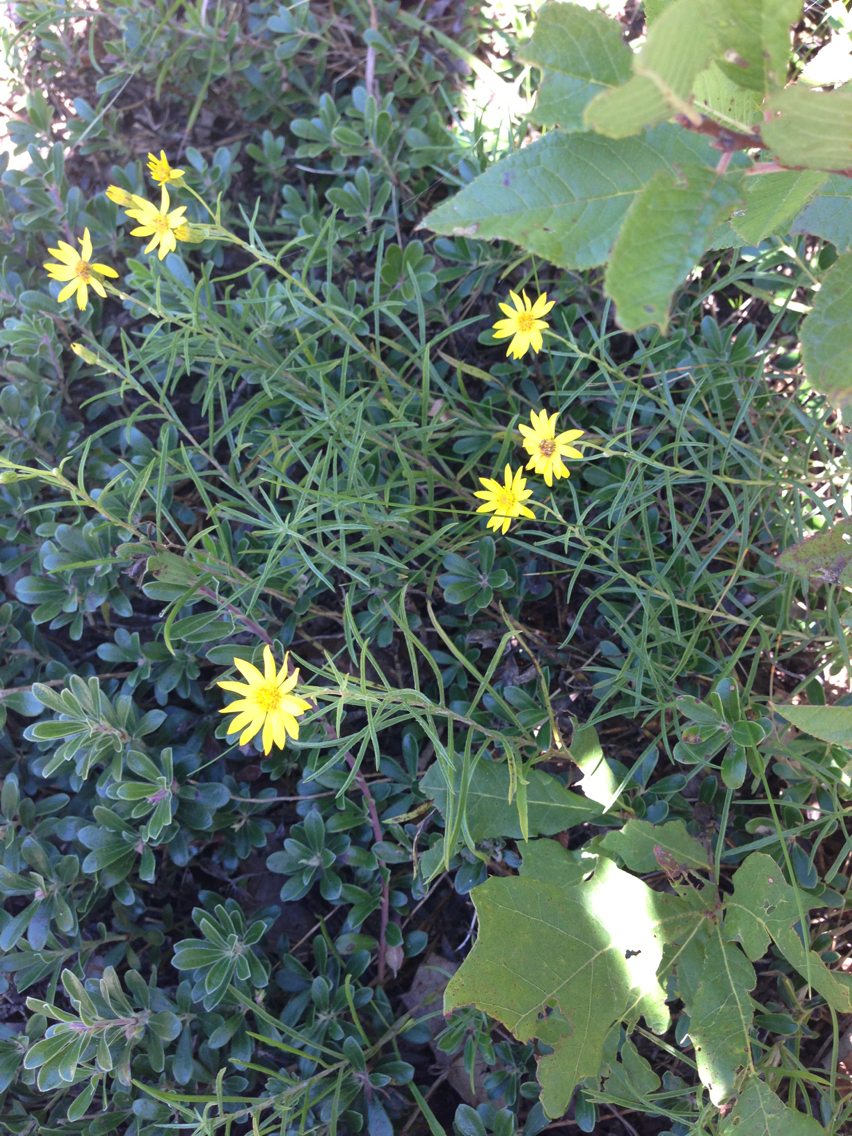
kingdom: Plantae
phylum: Tracheophyta
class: Magnoliopsida
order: Asterales
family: Asteraceae
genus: Pityopsis
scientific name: Pityopsis falcata
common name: Sickle-leaved goldenaster
